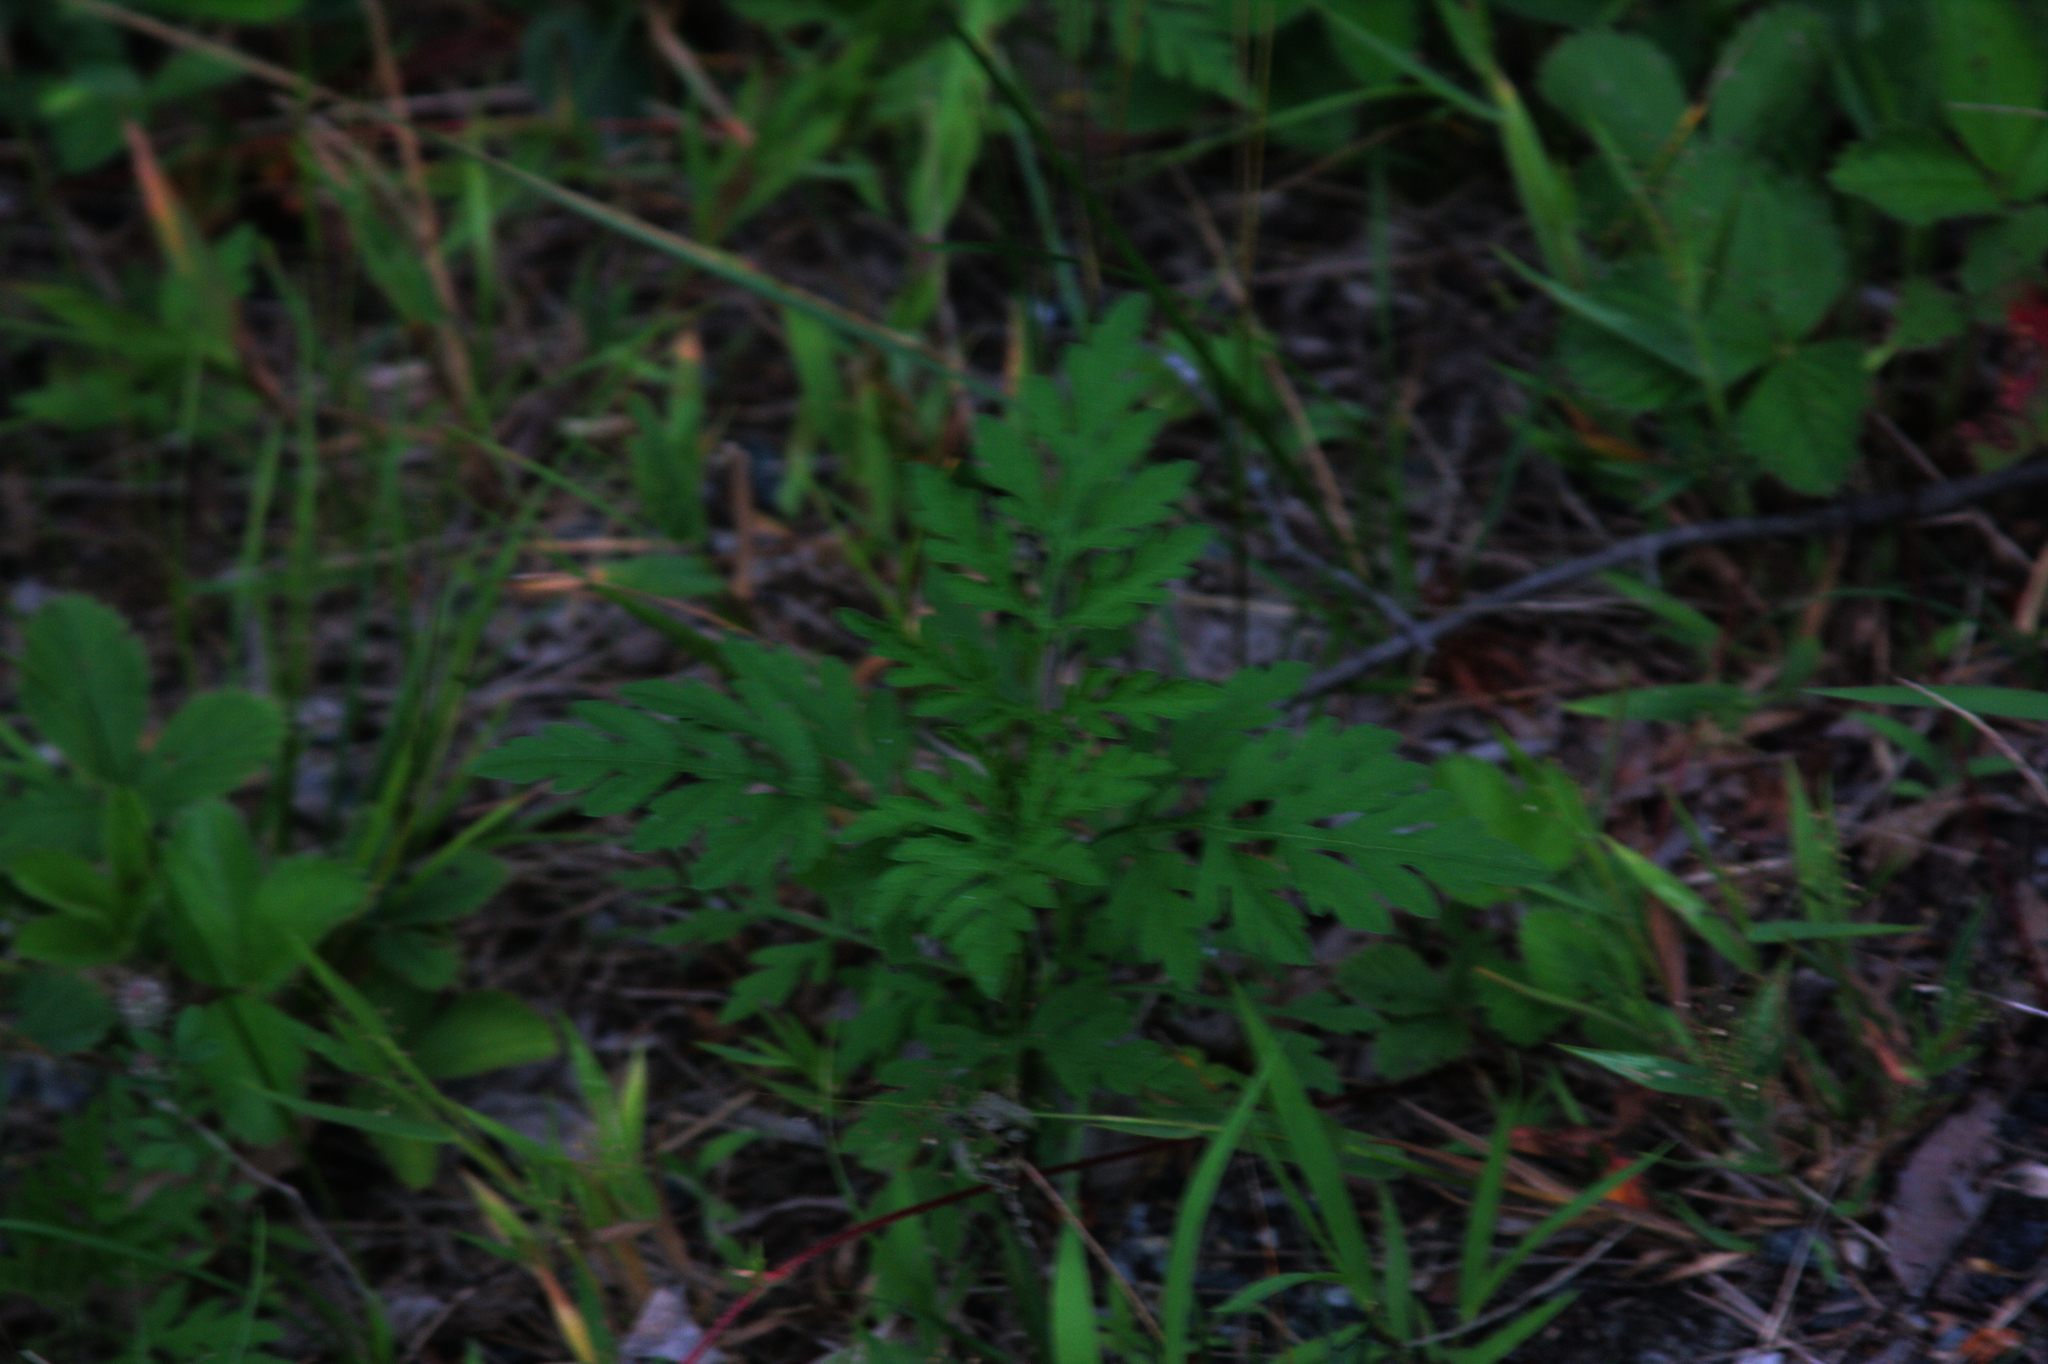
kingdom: Plantae
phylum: Tracheophyta
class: Magnoliopsida
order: Asterales
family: Asteraceae
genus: Ambrosia
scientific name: Ambrosia artemisiifolia
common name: Annual ragweed
